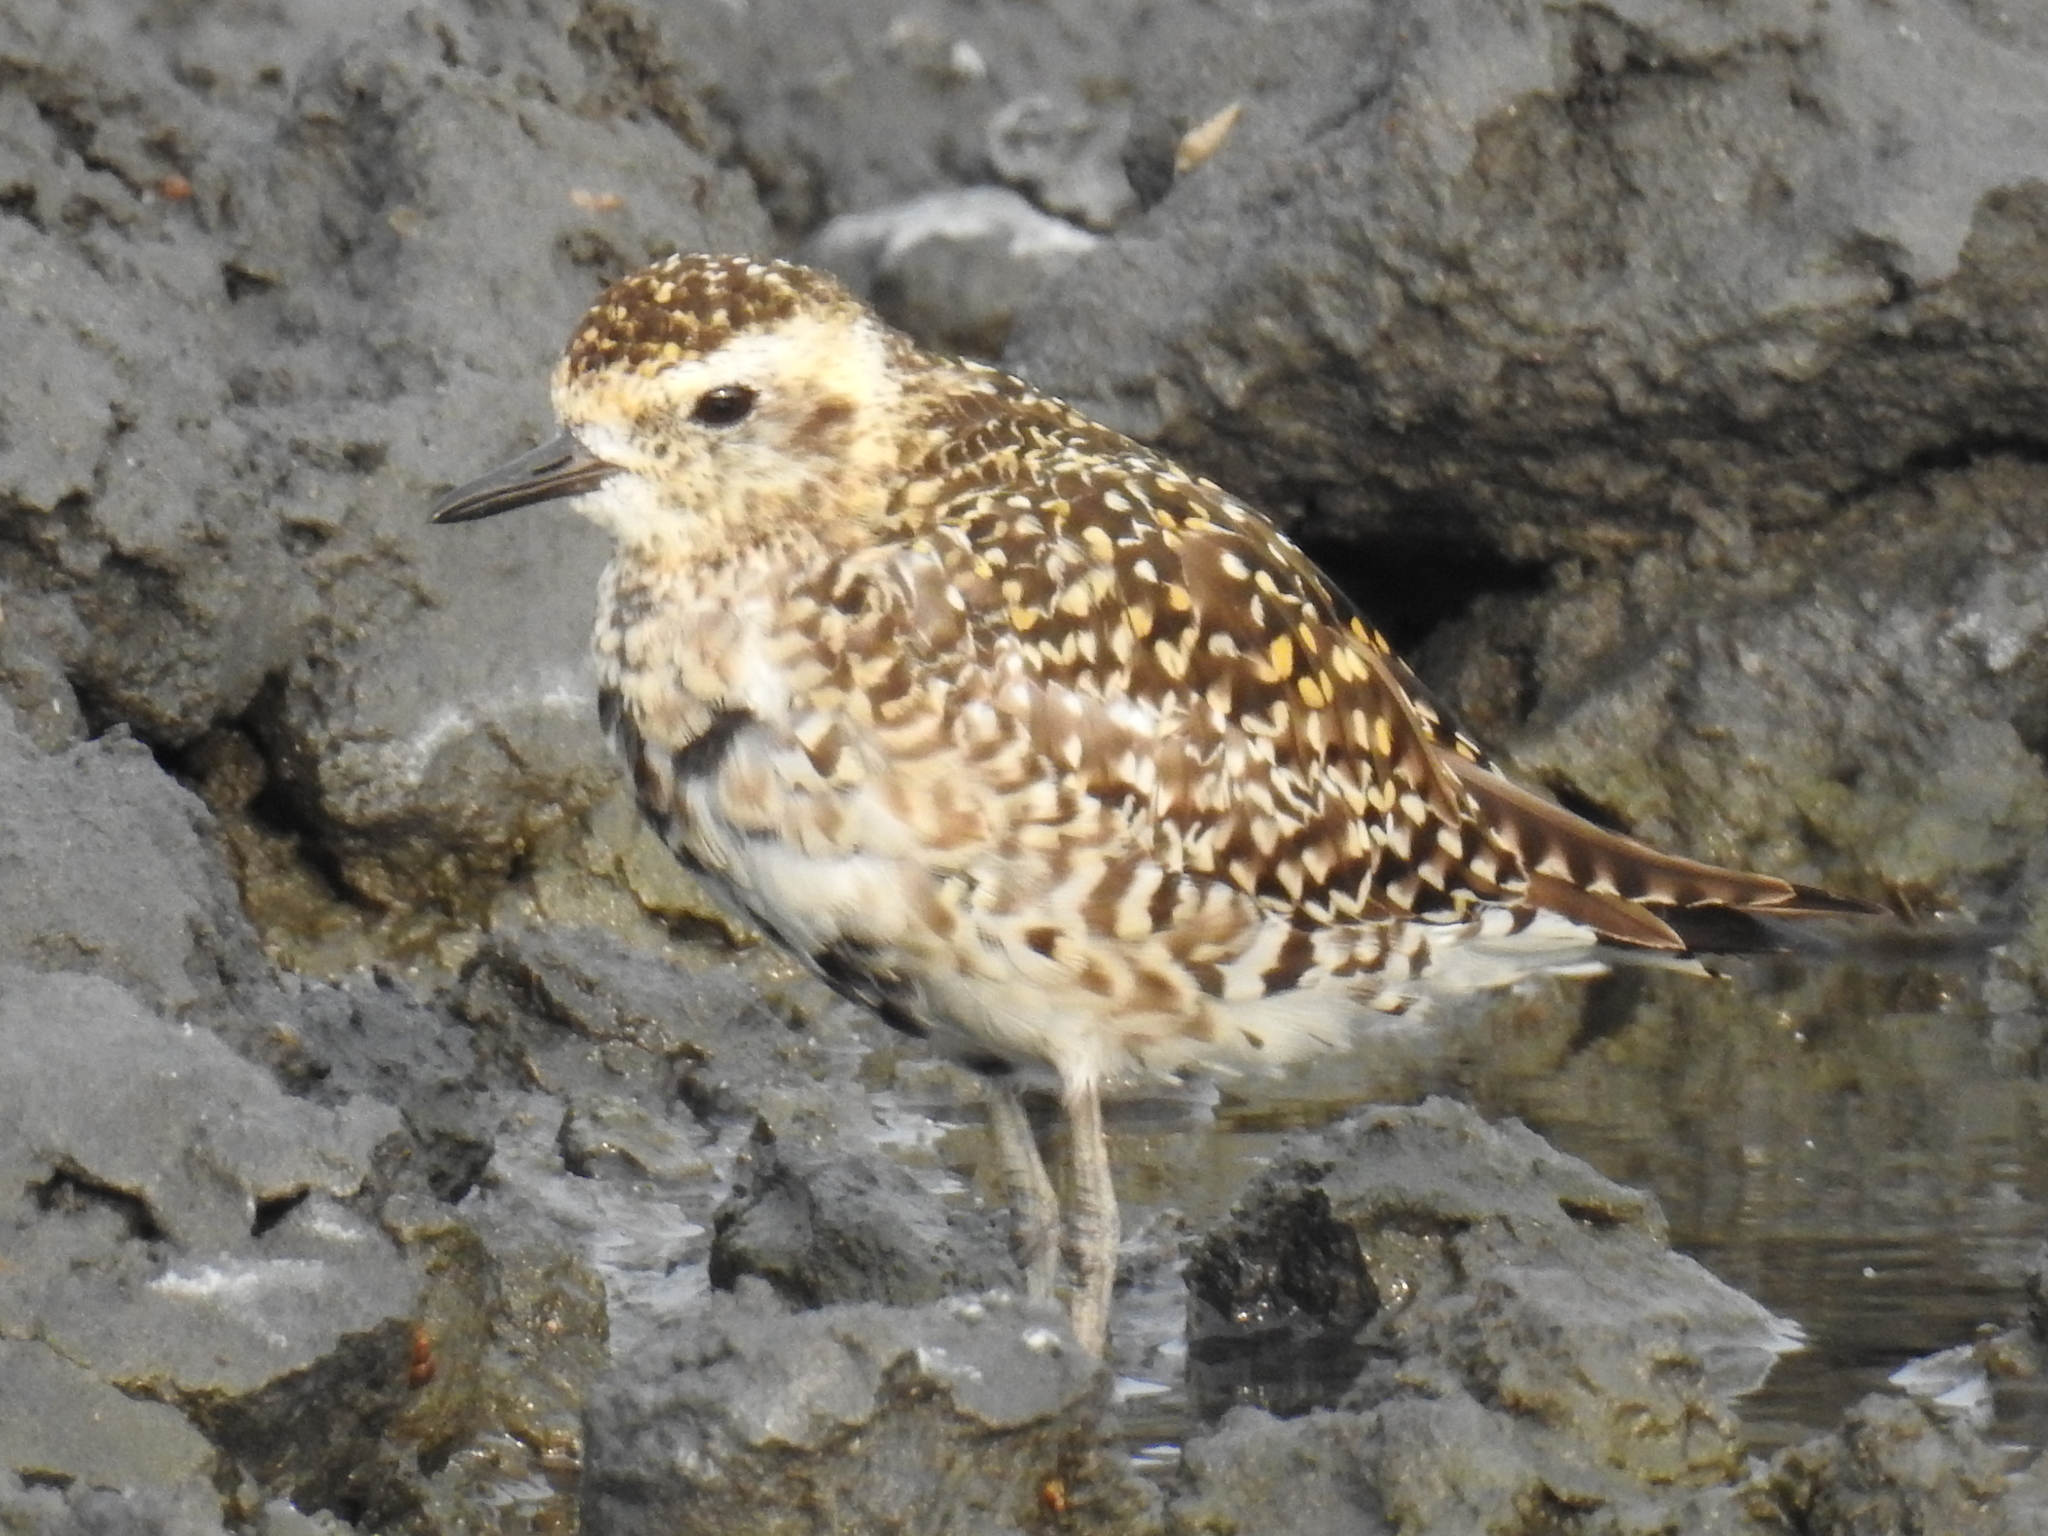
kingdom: Animalia
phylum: Chordata
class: Aves
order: Charadriiformes
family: Charadriidae
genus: Pluvialis
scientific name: Pluvialis fulva
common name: Pacific golden plover
